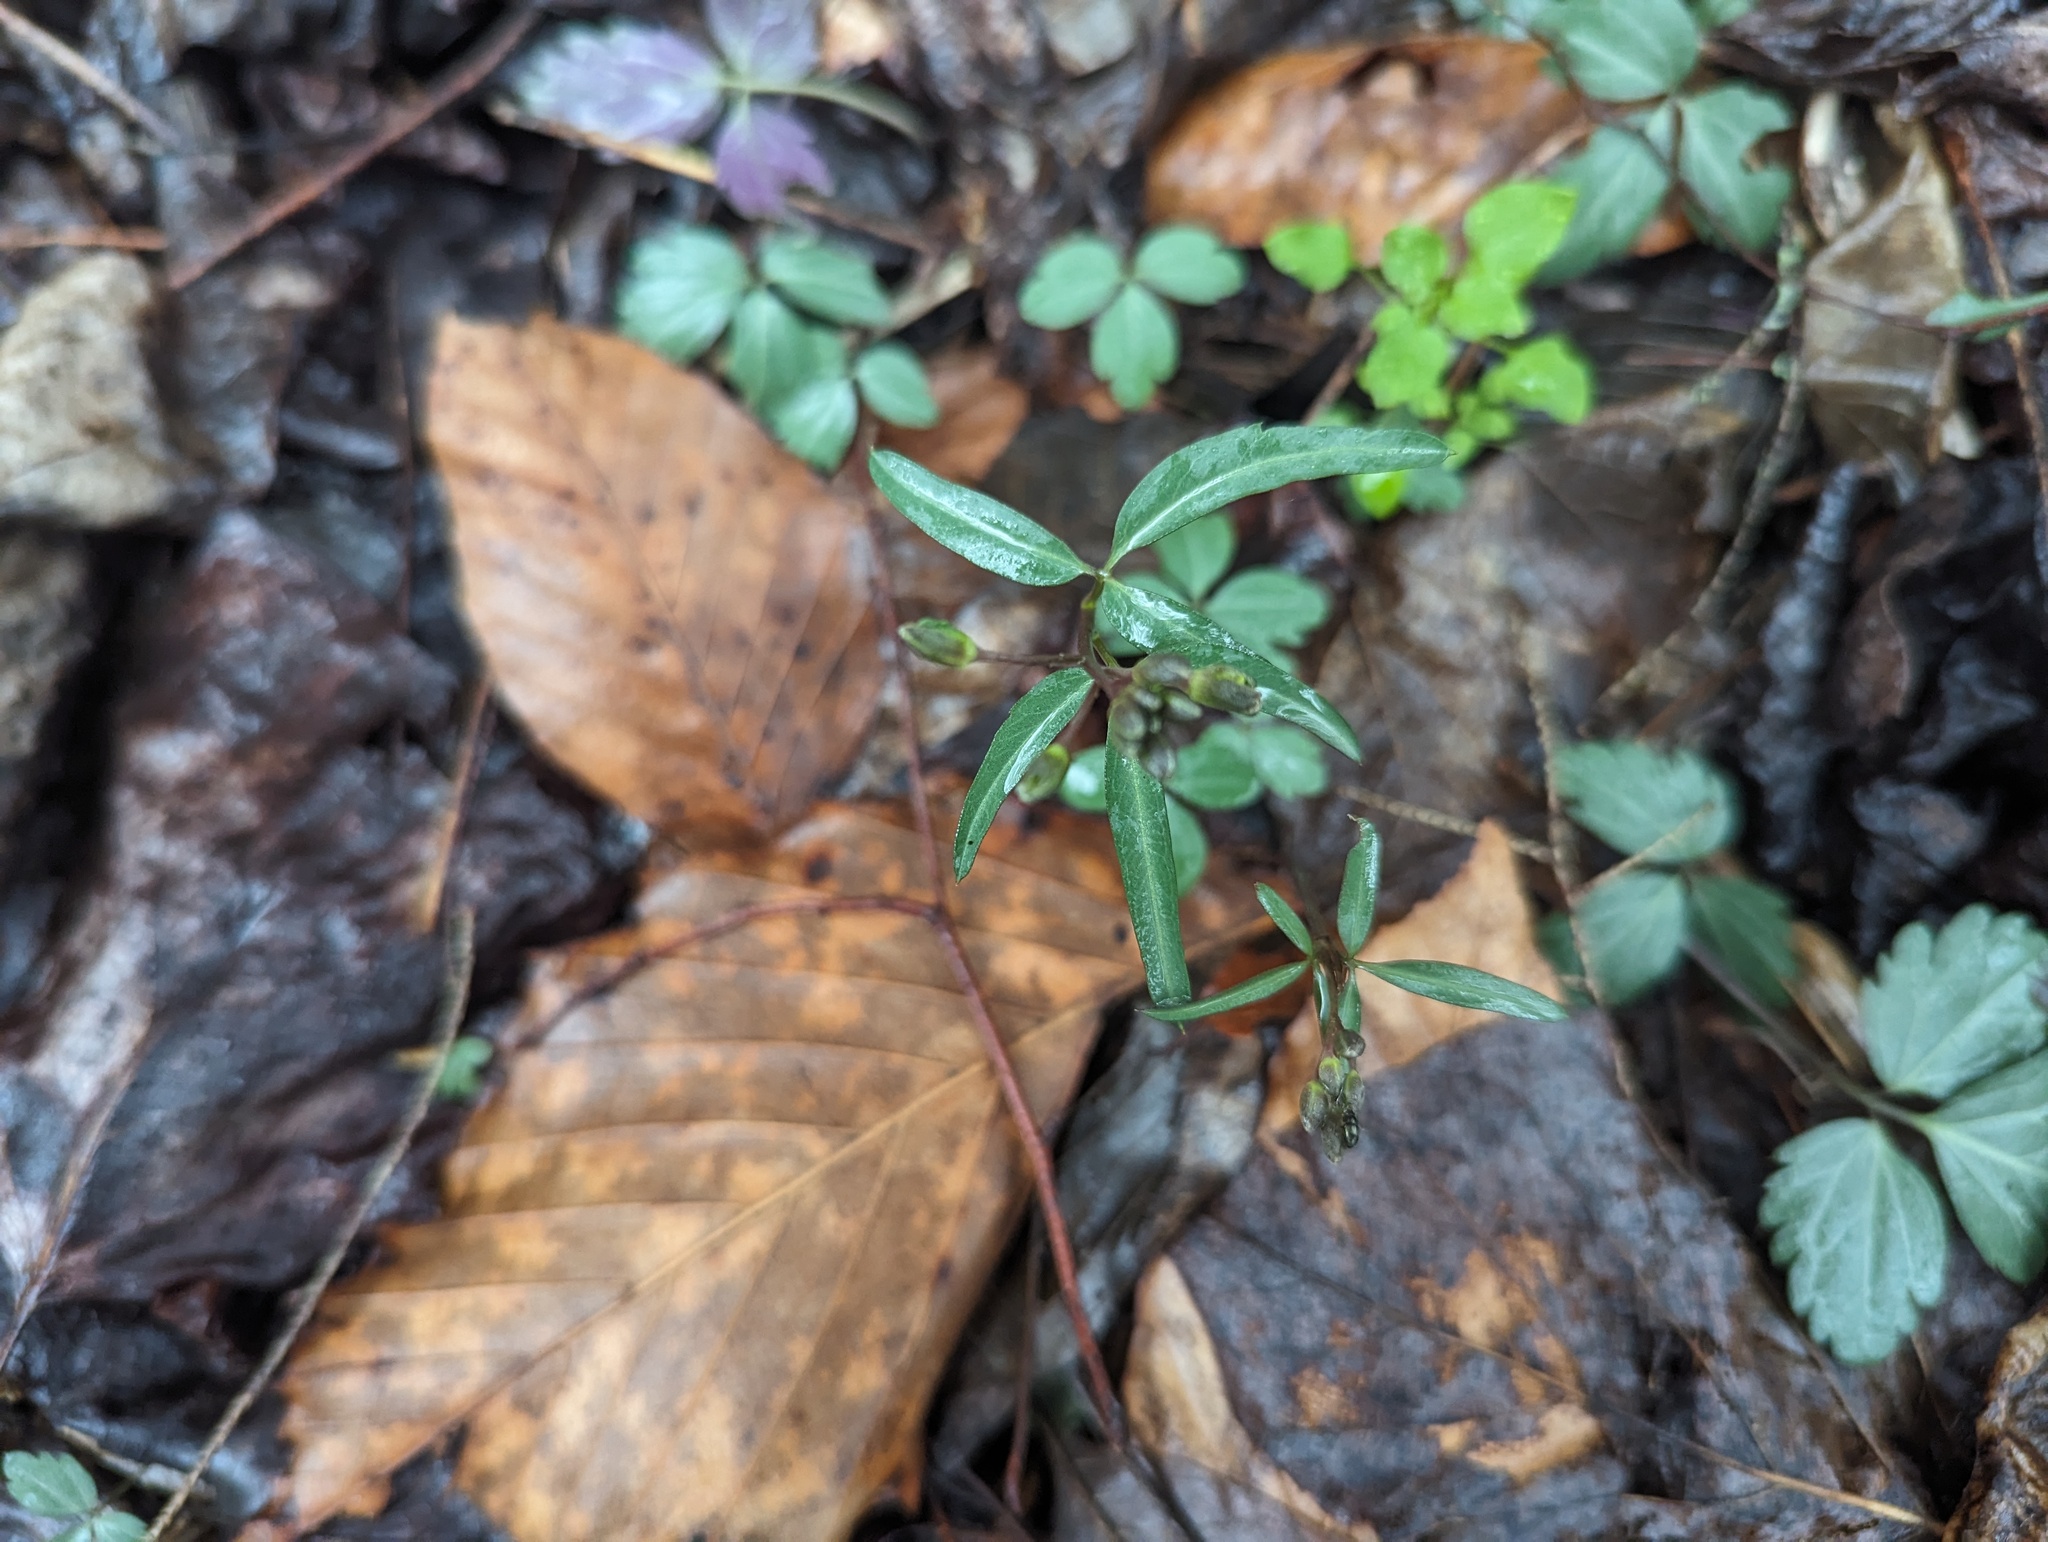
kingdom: Plantae
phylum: Tracheophyta
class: Magnoliopsida
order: Brassicales
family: Brassicaceae
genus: Cardamine
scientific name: Cardamine angustata
